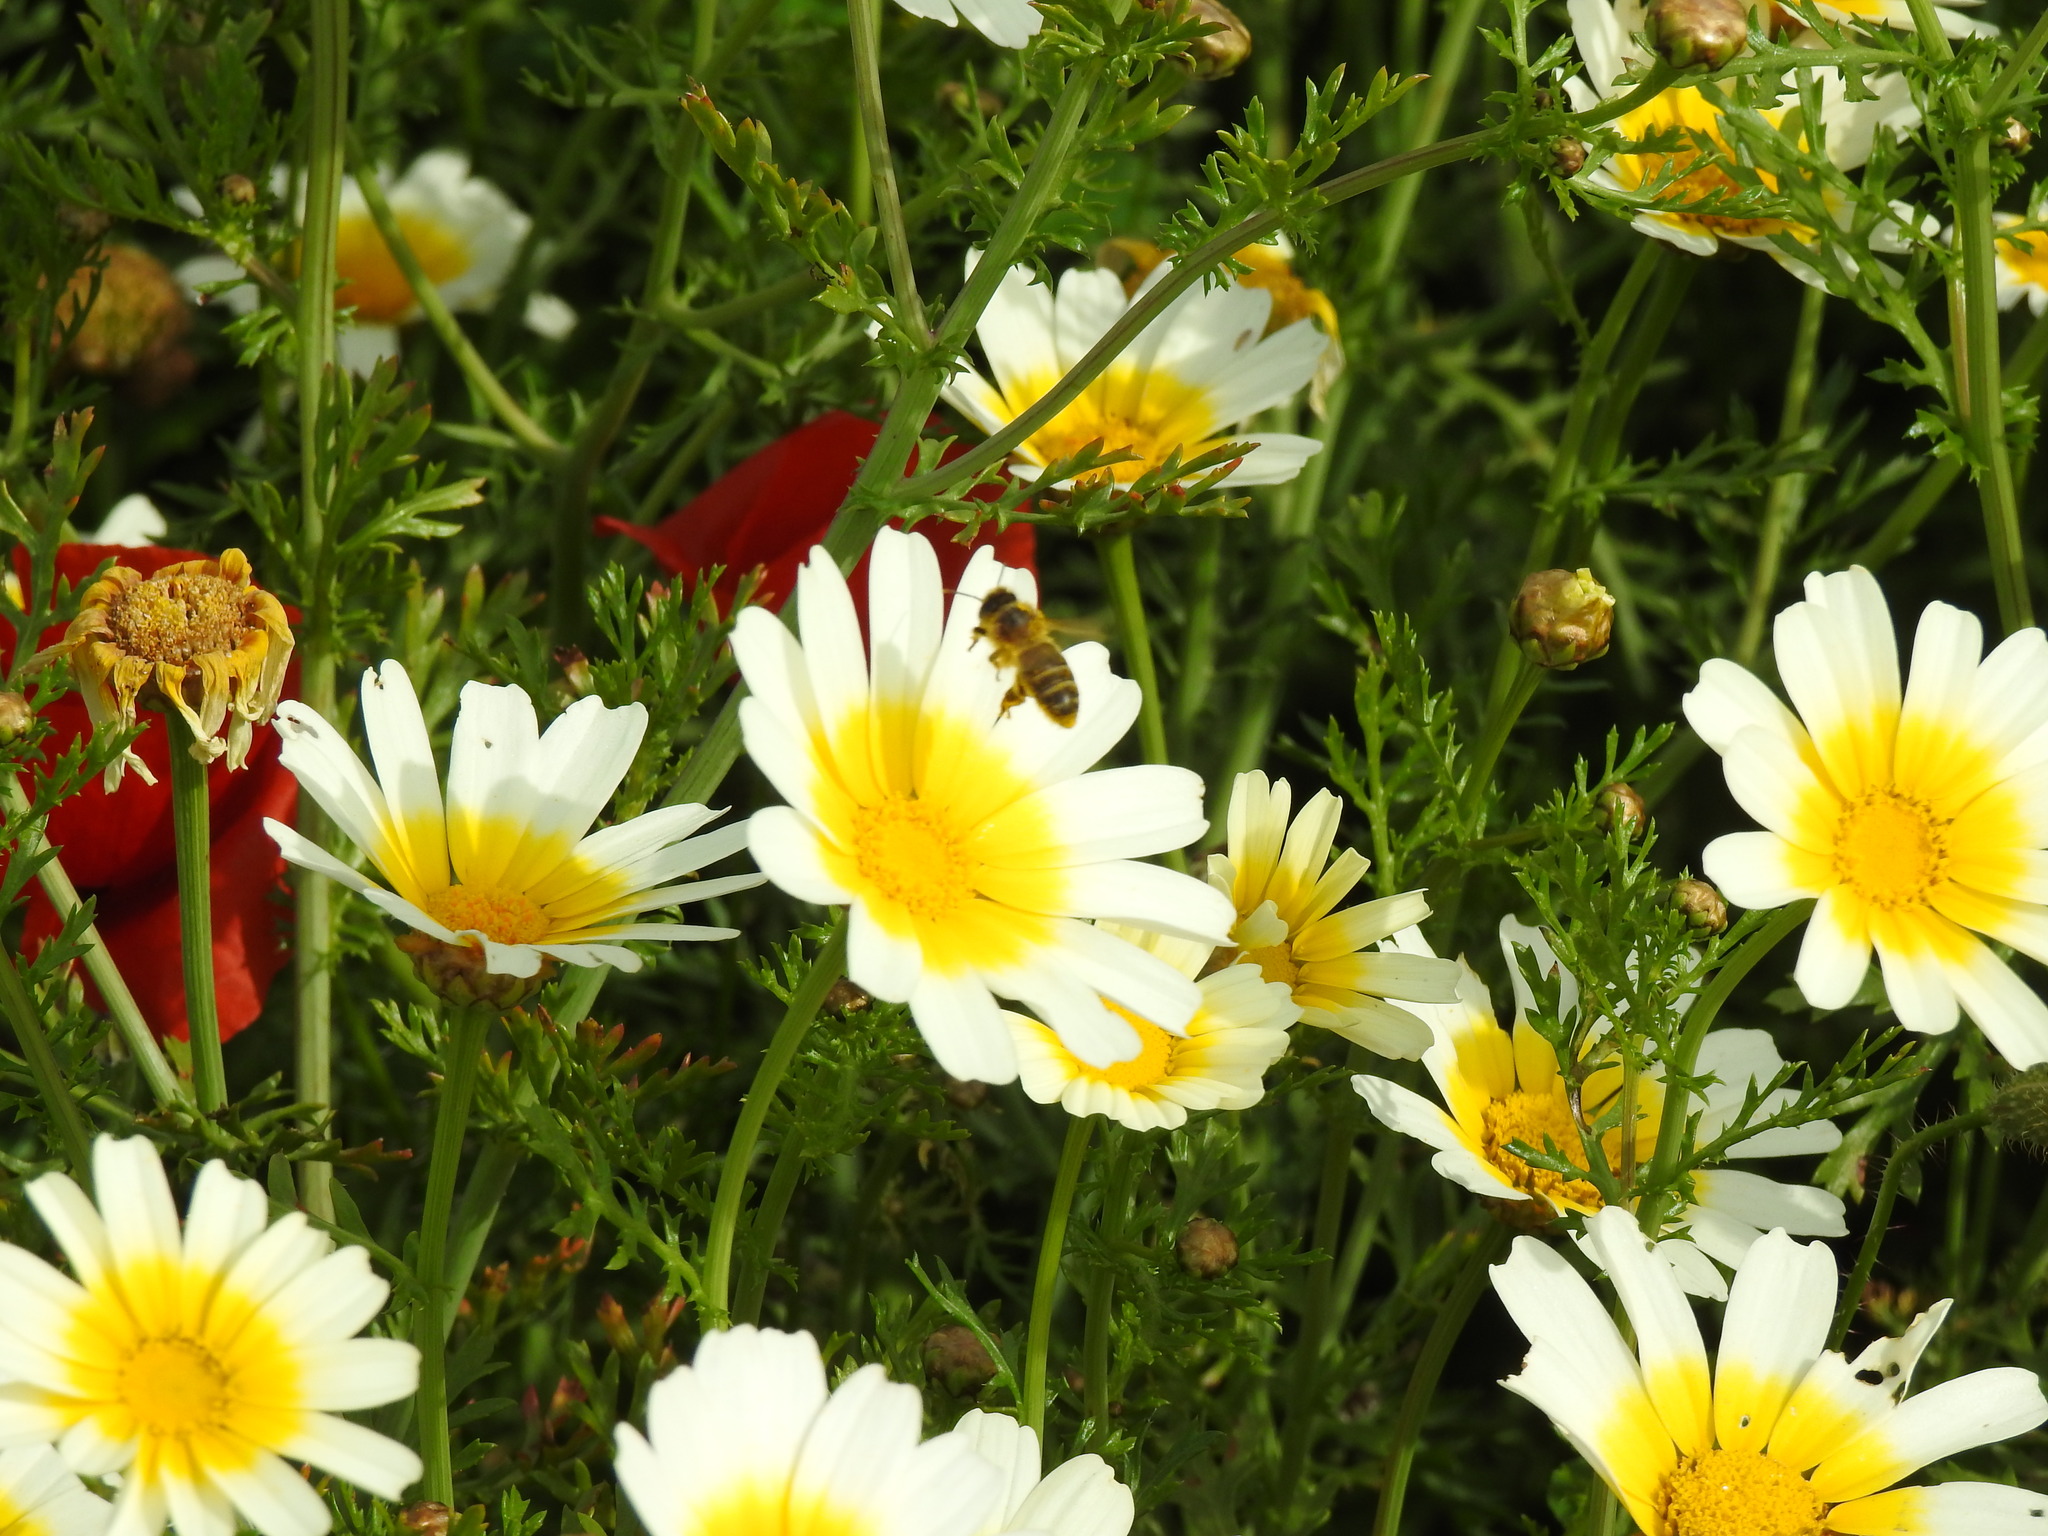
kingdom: Animalia
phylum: Arthropoda
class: Insecta
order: Hymenoptera
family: Apidae
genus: Apis
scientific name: Apis mellifera
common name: Honey bee
